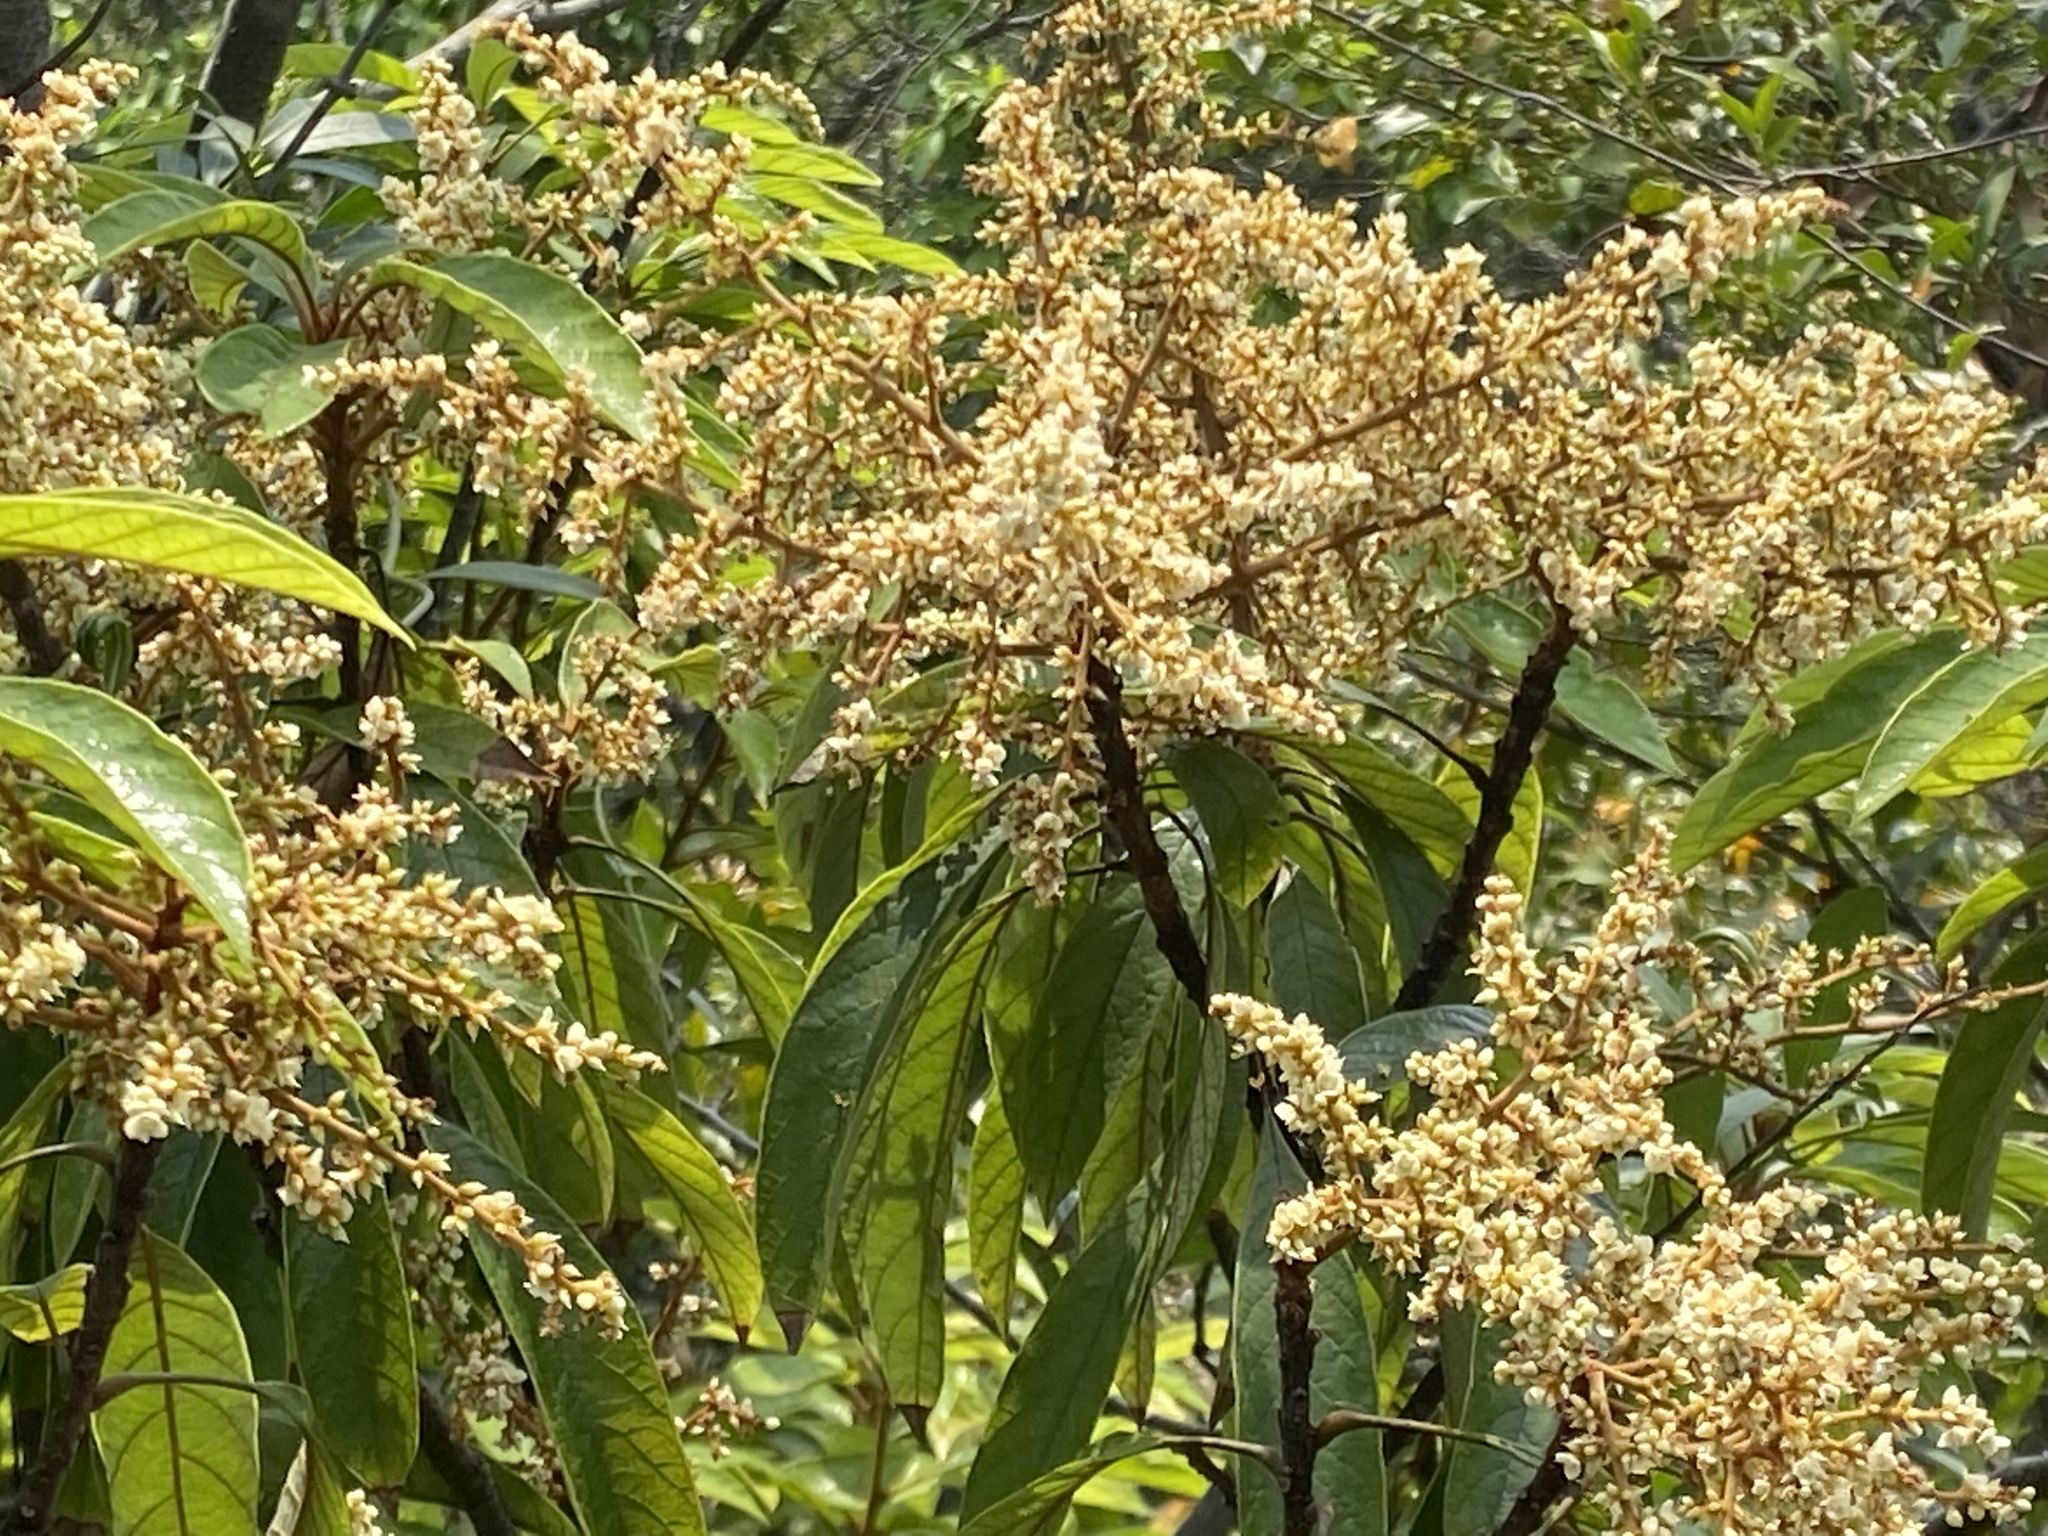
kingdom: Plantae
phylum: Tracheophyta
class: Magnoliopsida
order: Proteales
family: Sabiaceae
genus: Meliosma
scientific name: Meliosma rigida
